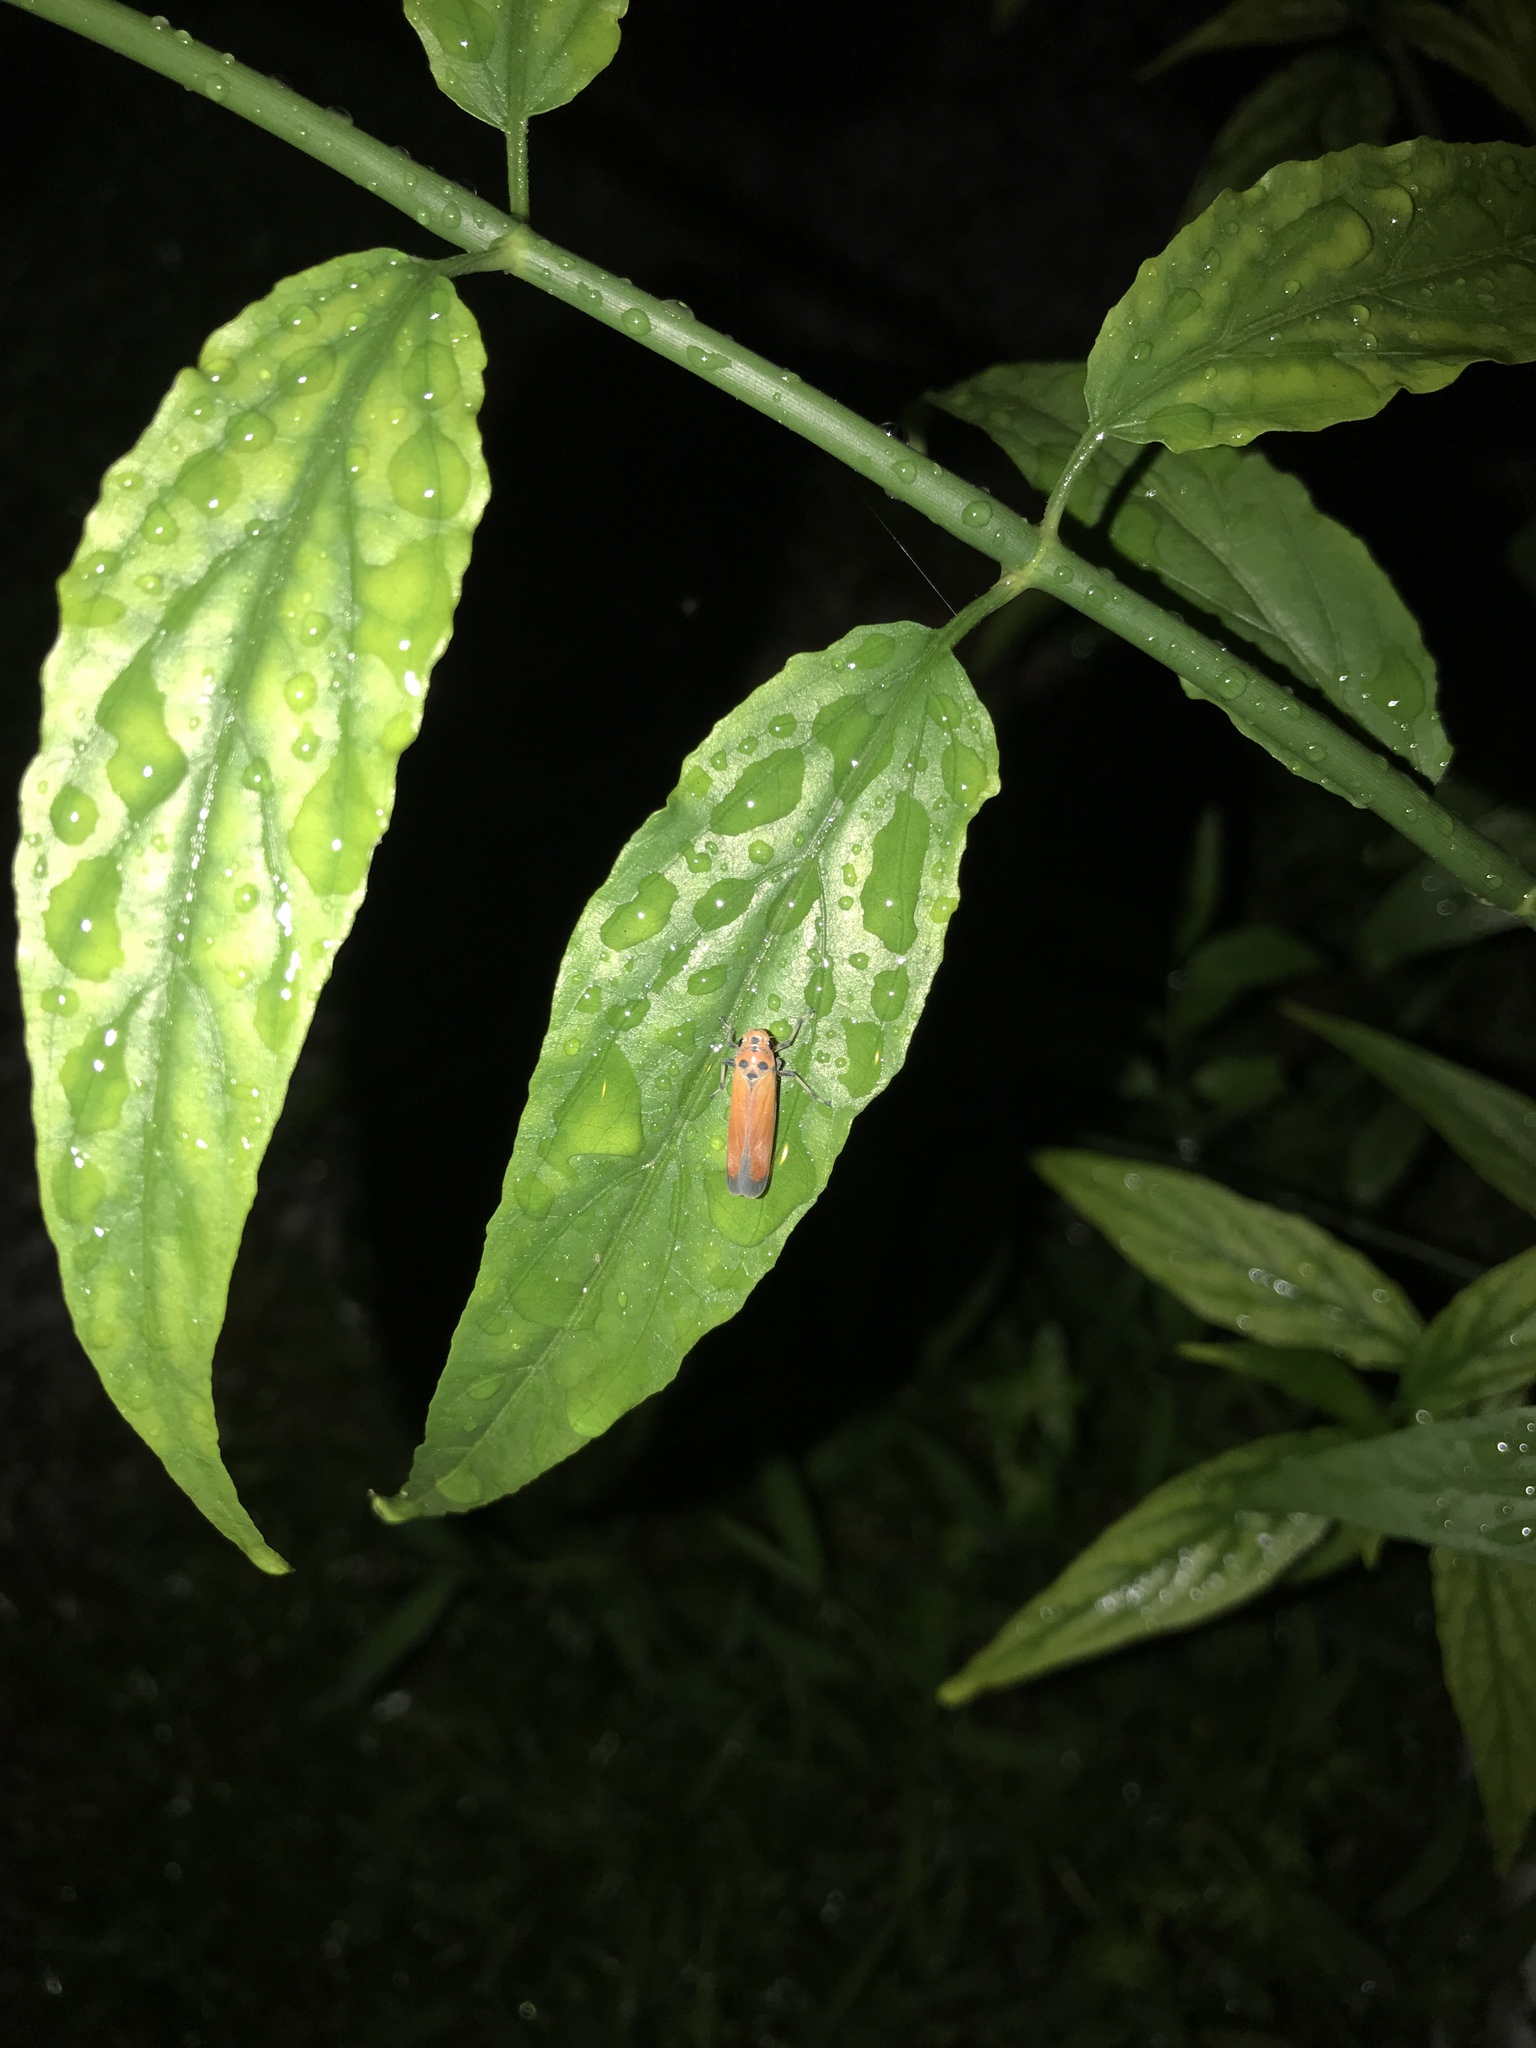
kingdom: Animalia
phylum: Arthropoda
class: Insecta
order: Hemiptera
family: Cicadellidae
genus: Bothrogonia
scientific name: Bothrogonia addita
